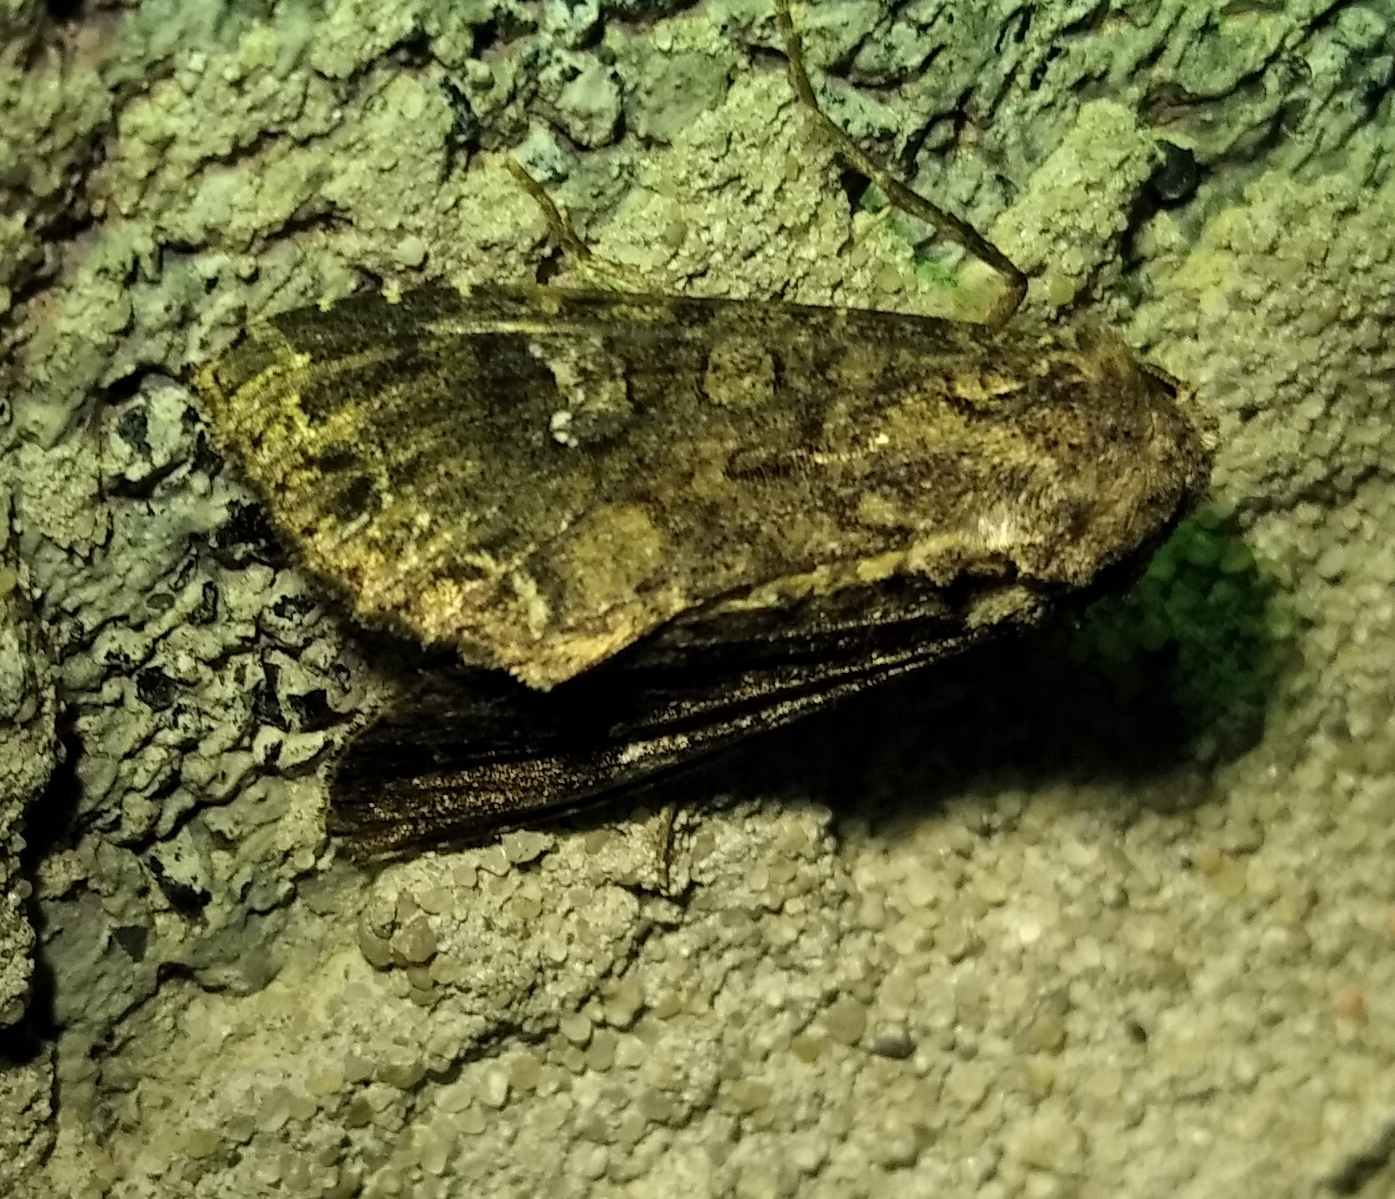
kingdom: Animalia
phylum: Arthropoda
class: Insecta
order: Lepidoptera
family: Noctuidae
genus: Mamestra
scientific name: Mamestra brassicae
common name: Cabbage moth
